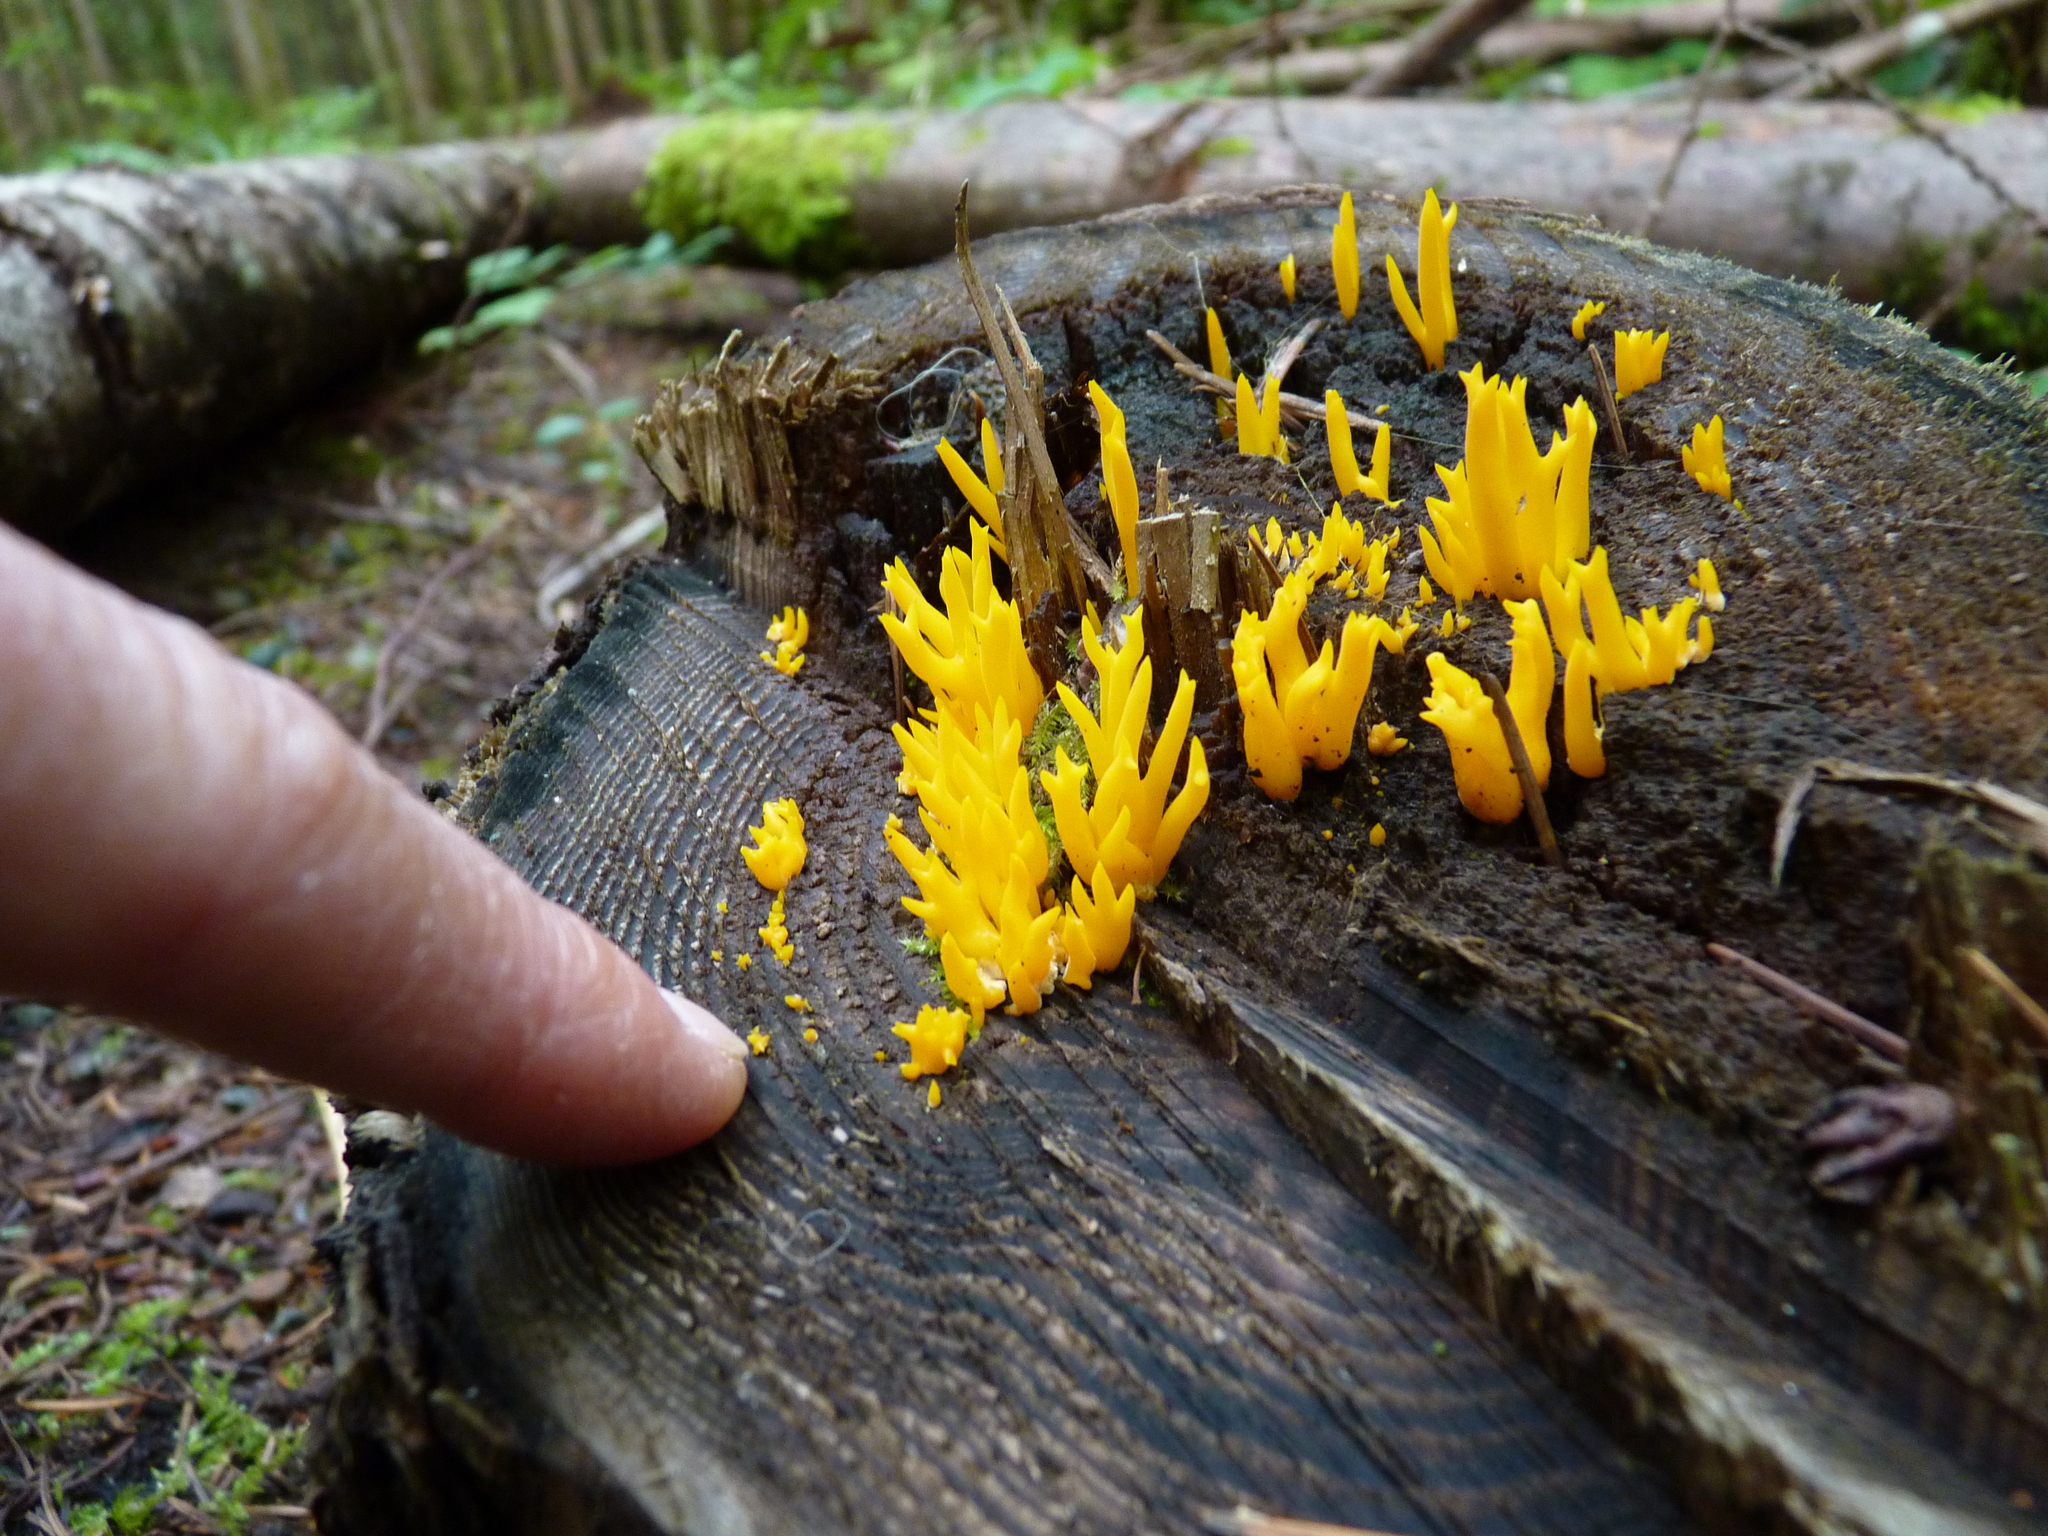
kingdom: Fungi
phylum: Basidiomycota
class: Dacrymycetes
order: Dacrymycetales
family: Dacrymycetaceae
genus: Calocera
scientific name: Calocera viscosa
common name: Yellow stagshorn
